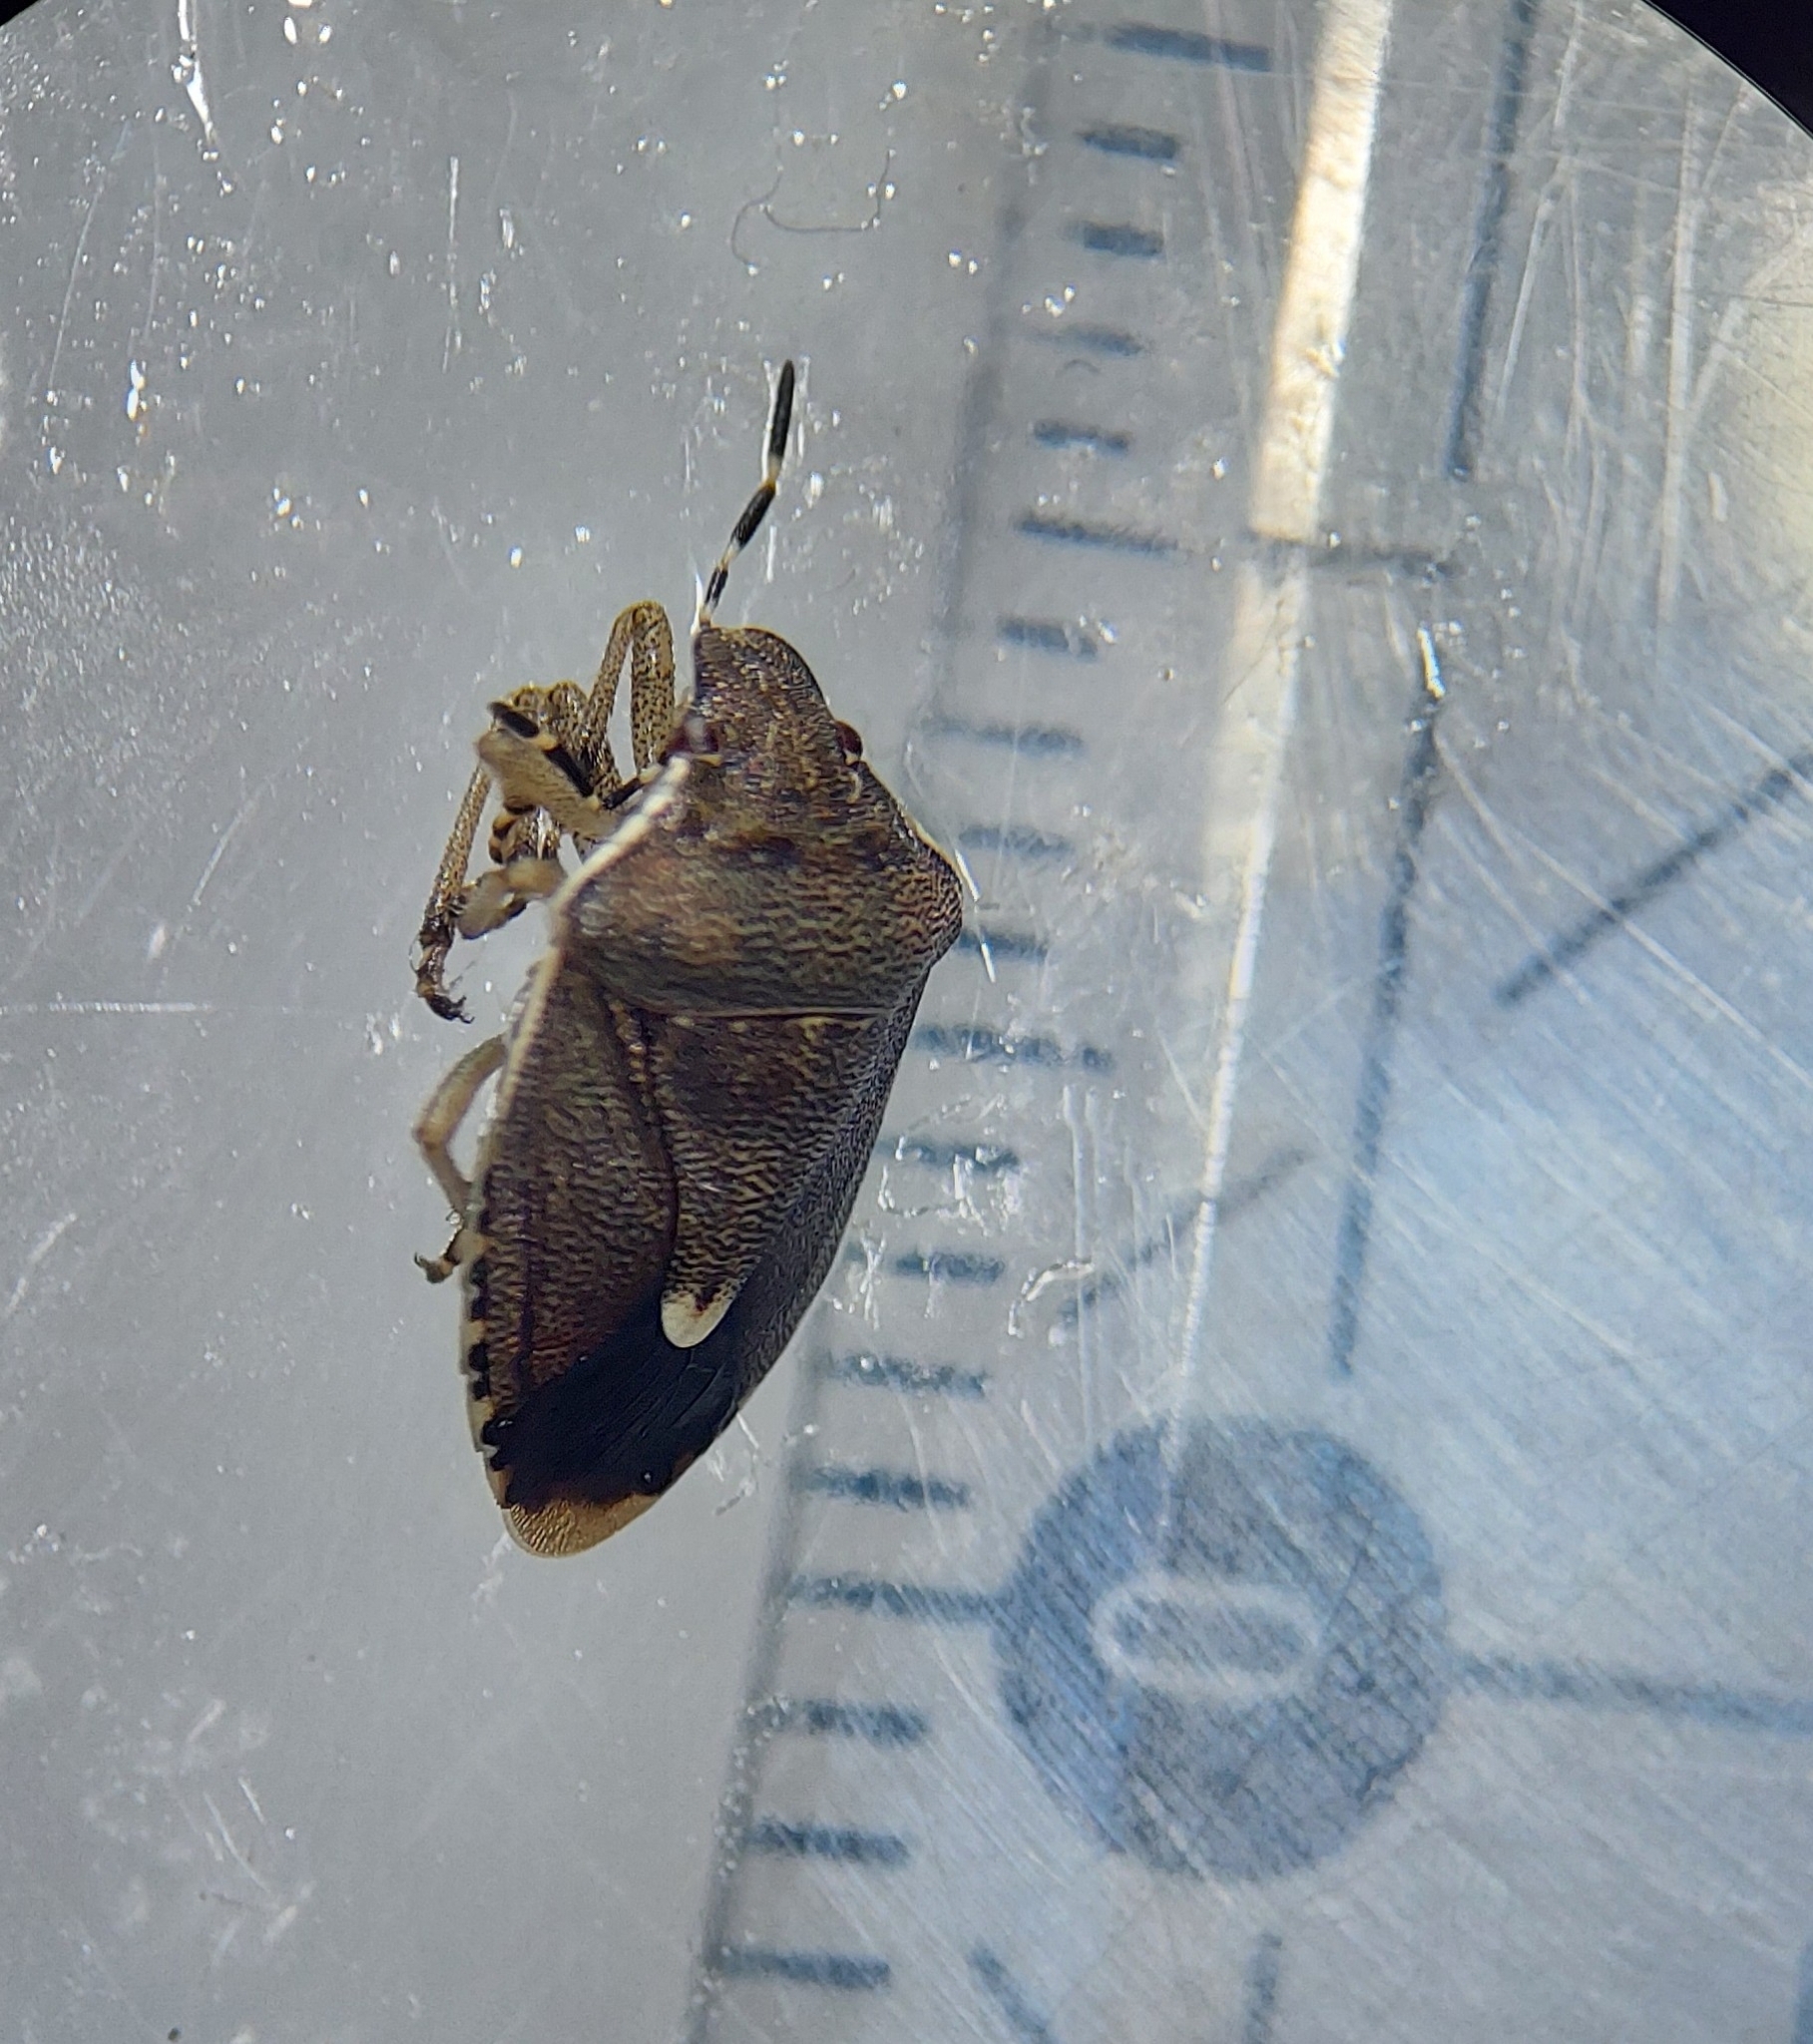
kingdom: Animalia
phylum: Arthropoda
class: Insecta
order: Hemiptera
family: Pentatomidae
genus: Holcostethus
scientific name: Holcostethus albipes
